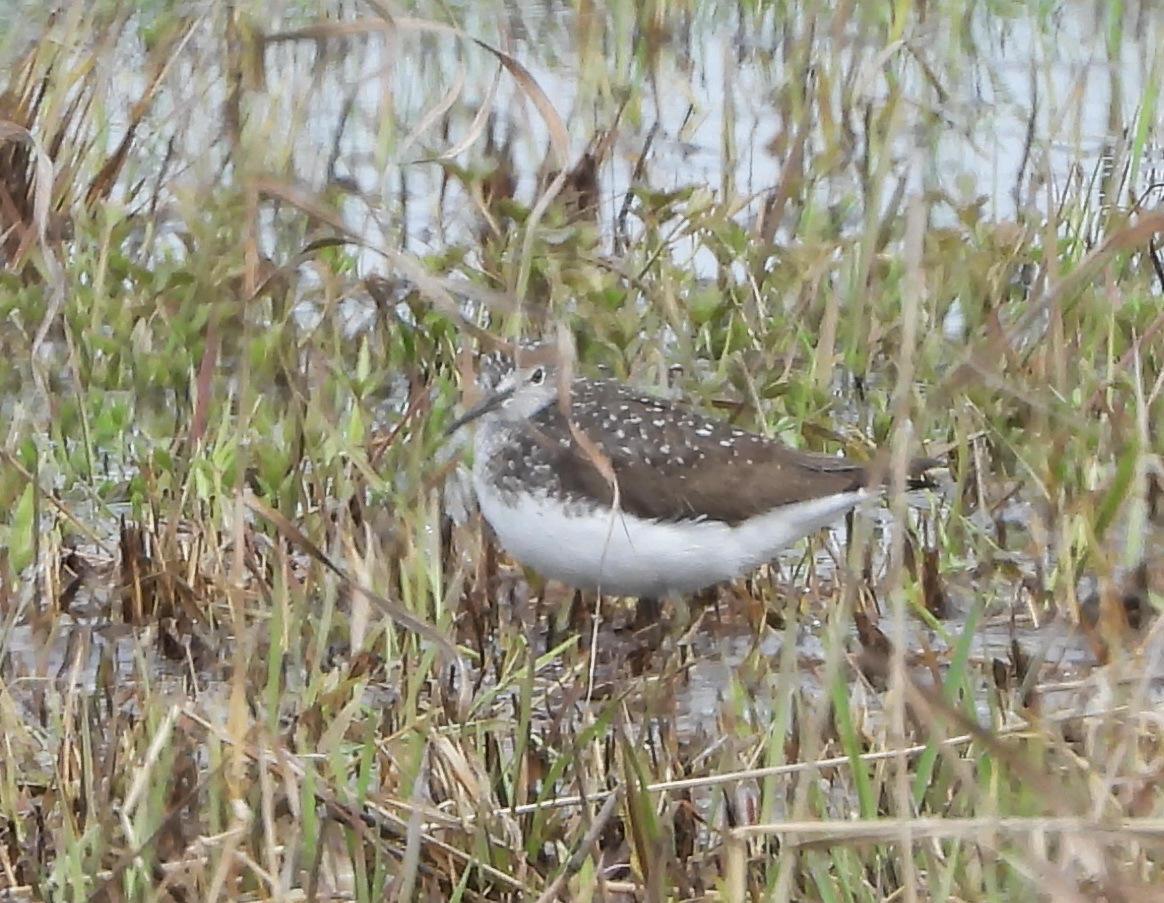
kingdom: Animalia
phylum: Chordata
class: Aves
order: Charadriiformes
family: Scolopacidae
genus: Tringa
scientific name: Tringa ochropus
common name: Green sandpiper
